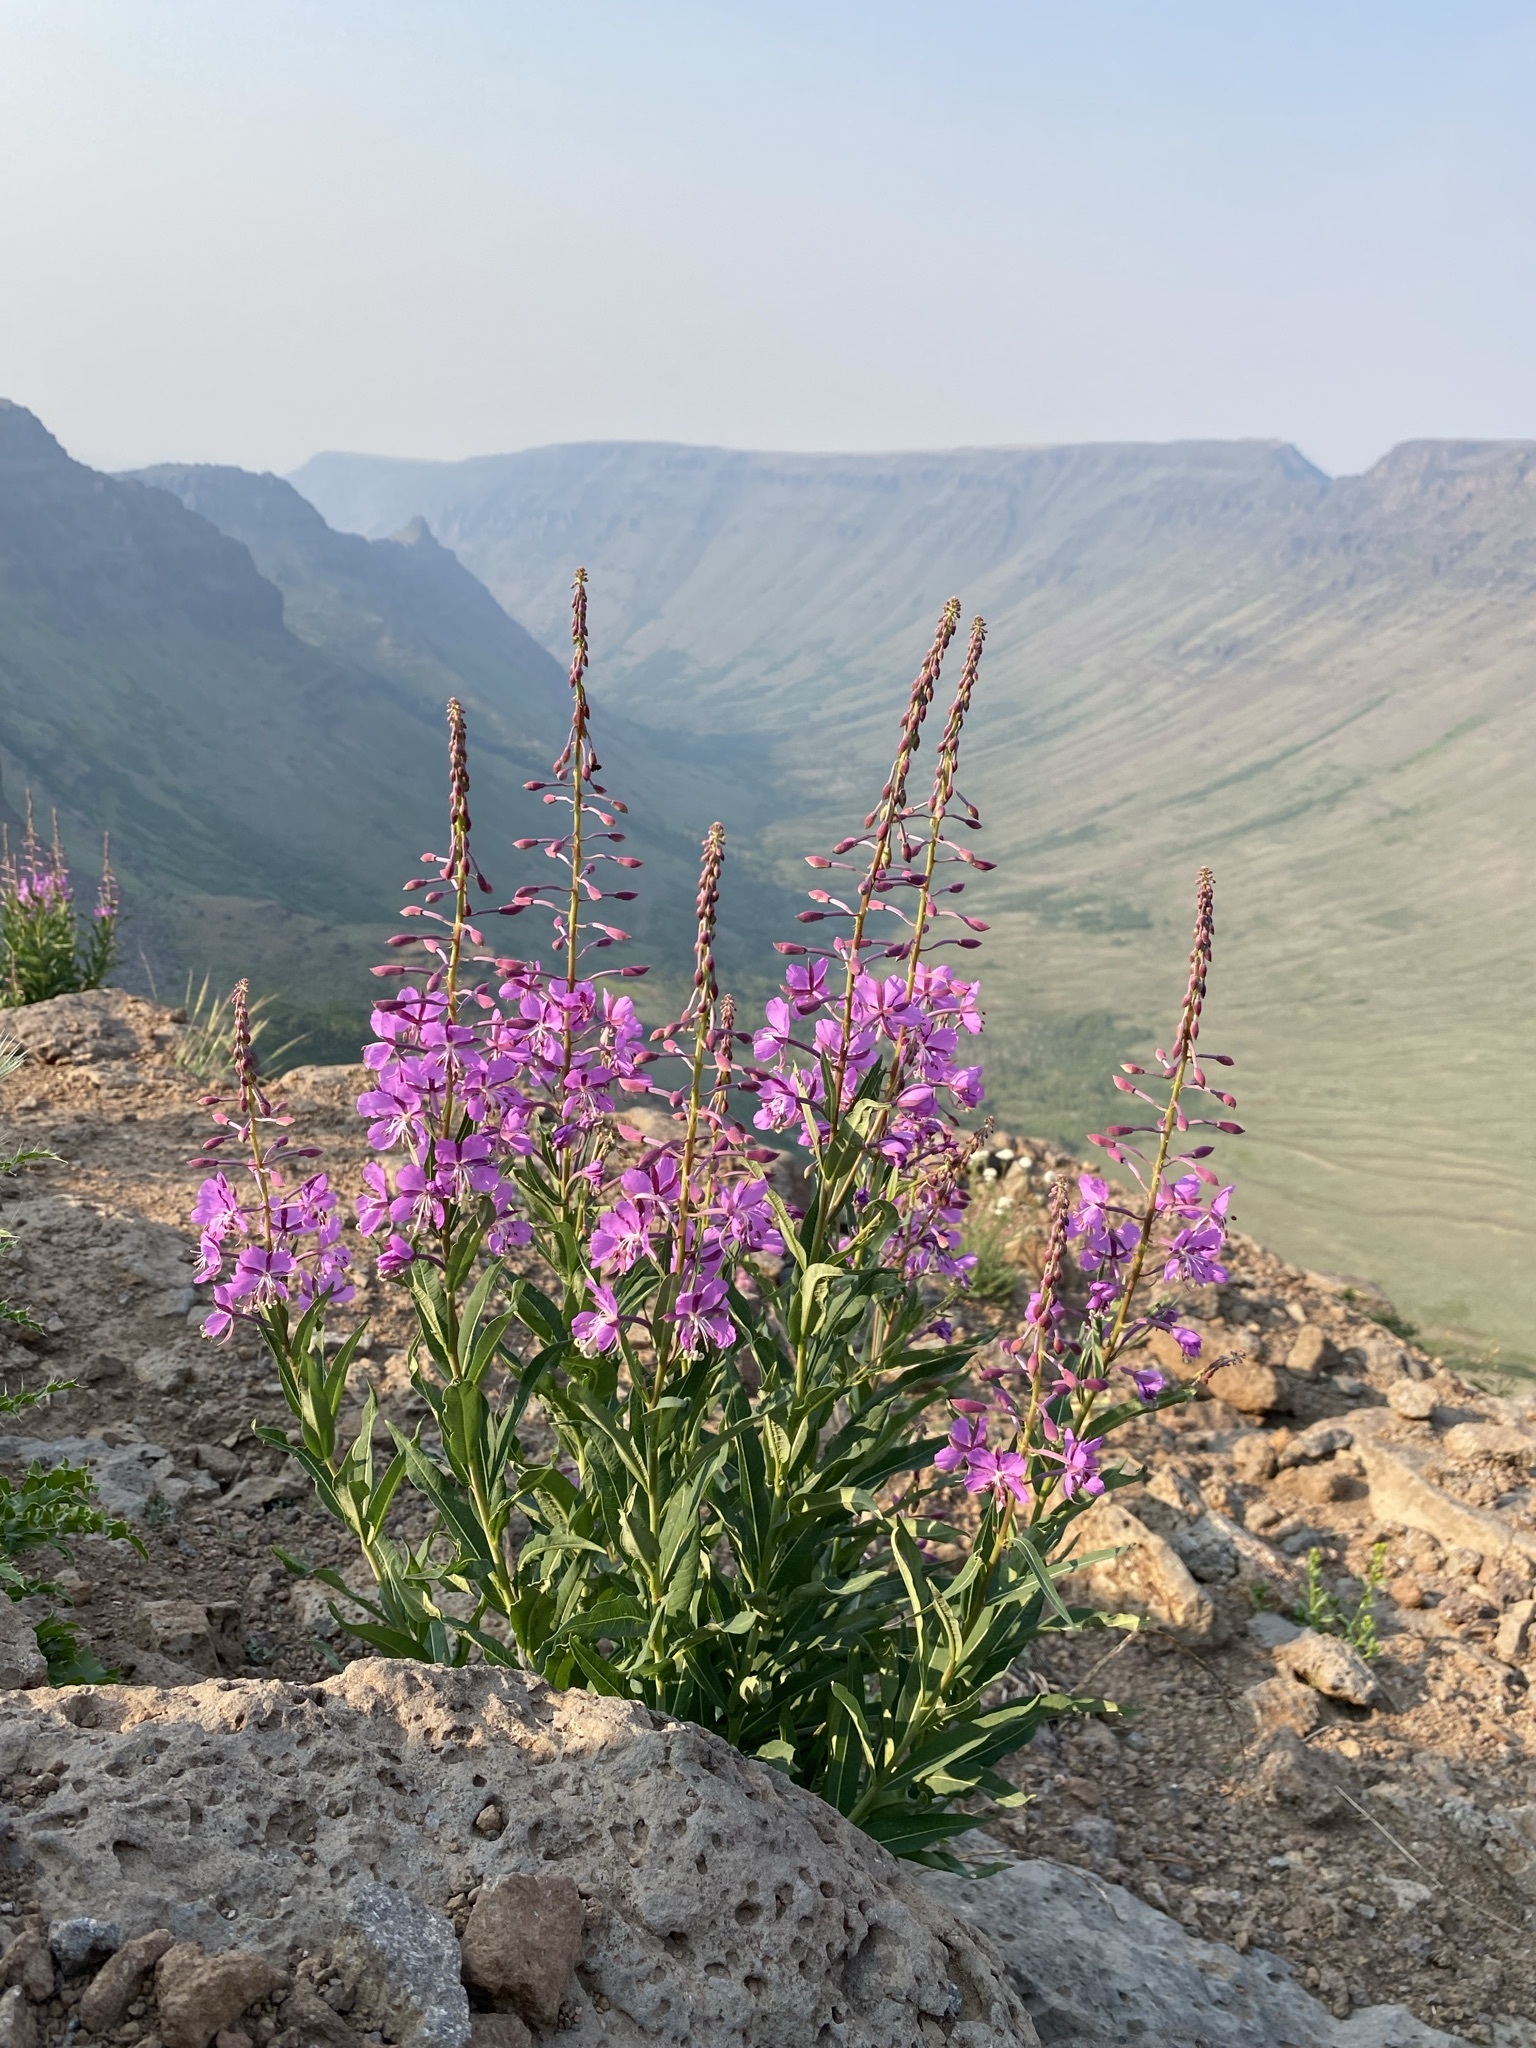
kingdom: Plantae
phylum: Tracheophyta
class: Magnoliopsida
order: Myrtales
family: Onagraceae
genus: Chamaenerion
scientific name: Chamaenerion angustifolium
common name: Fireweed
